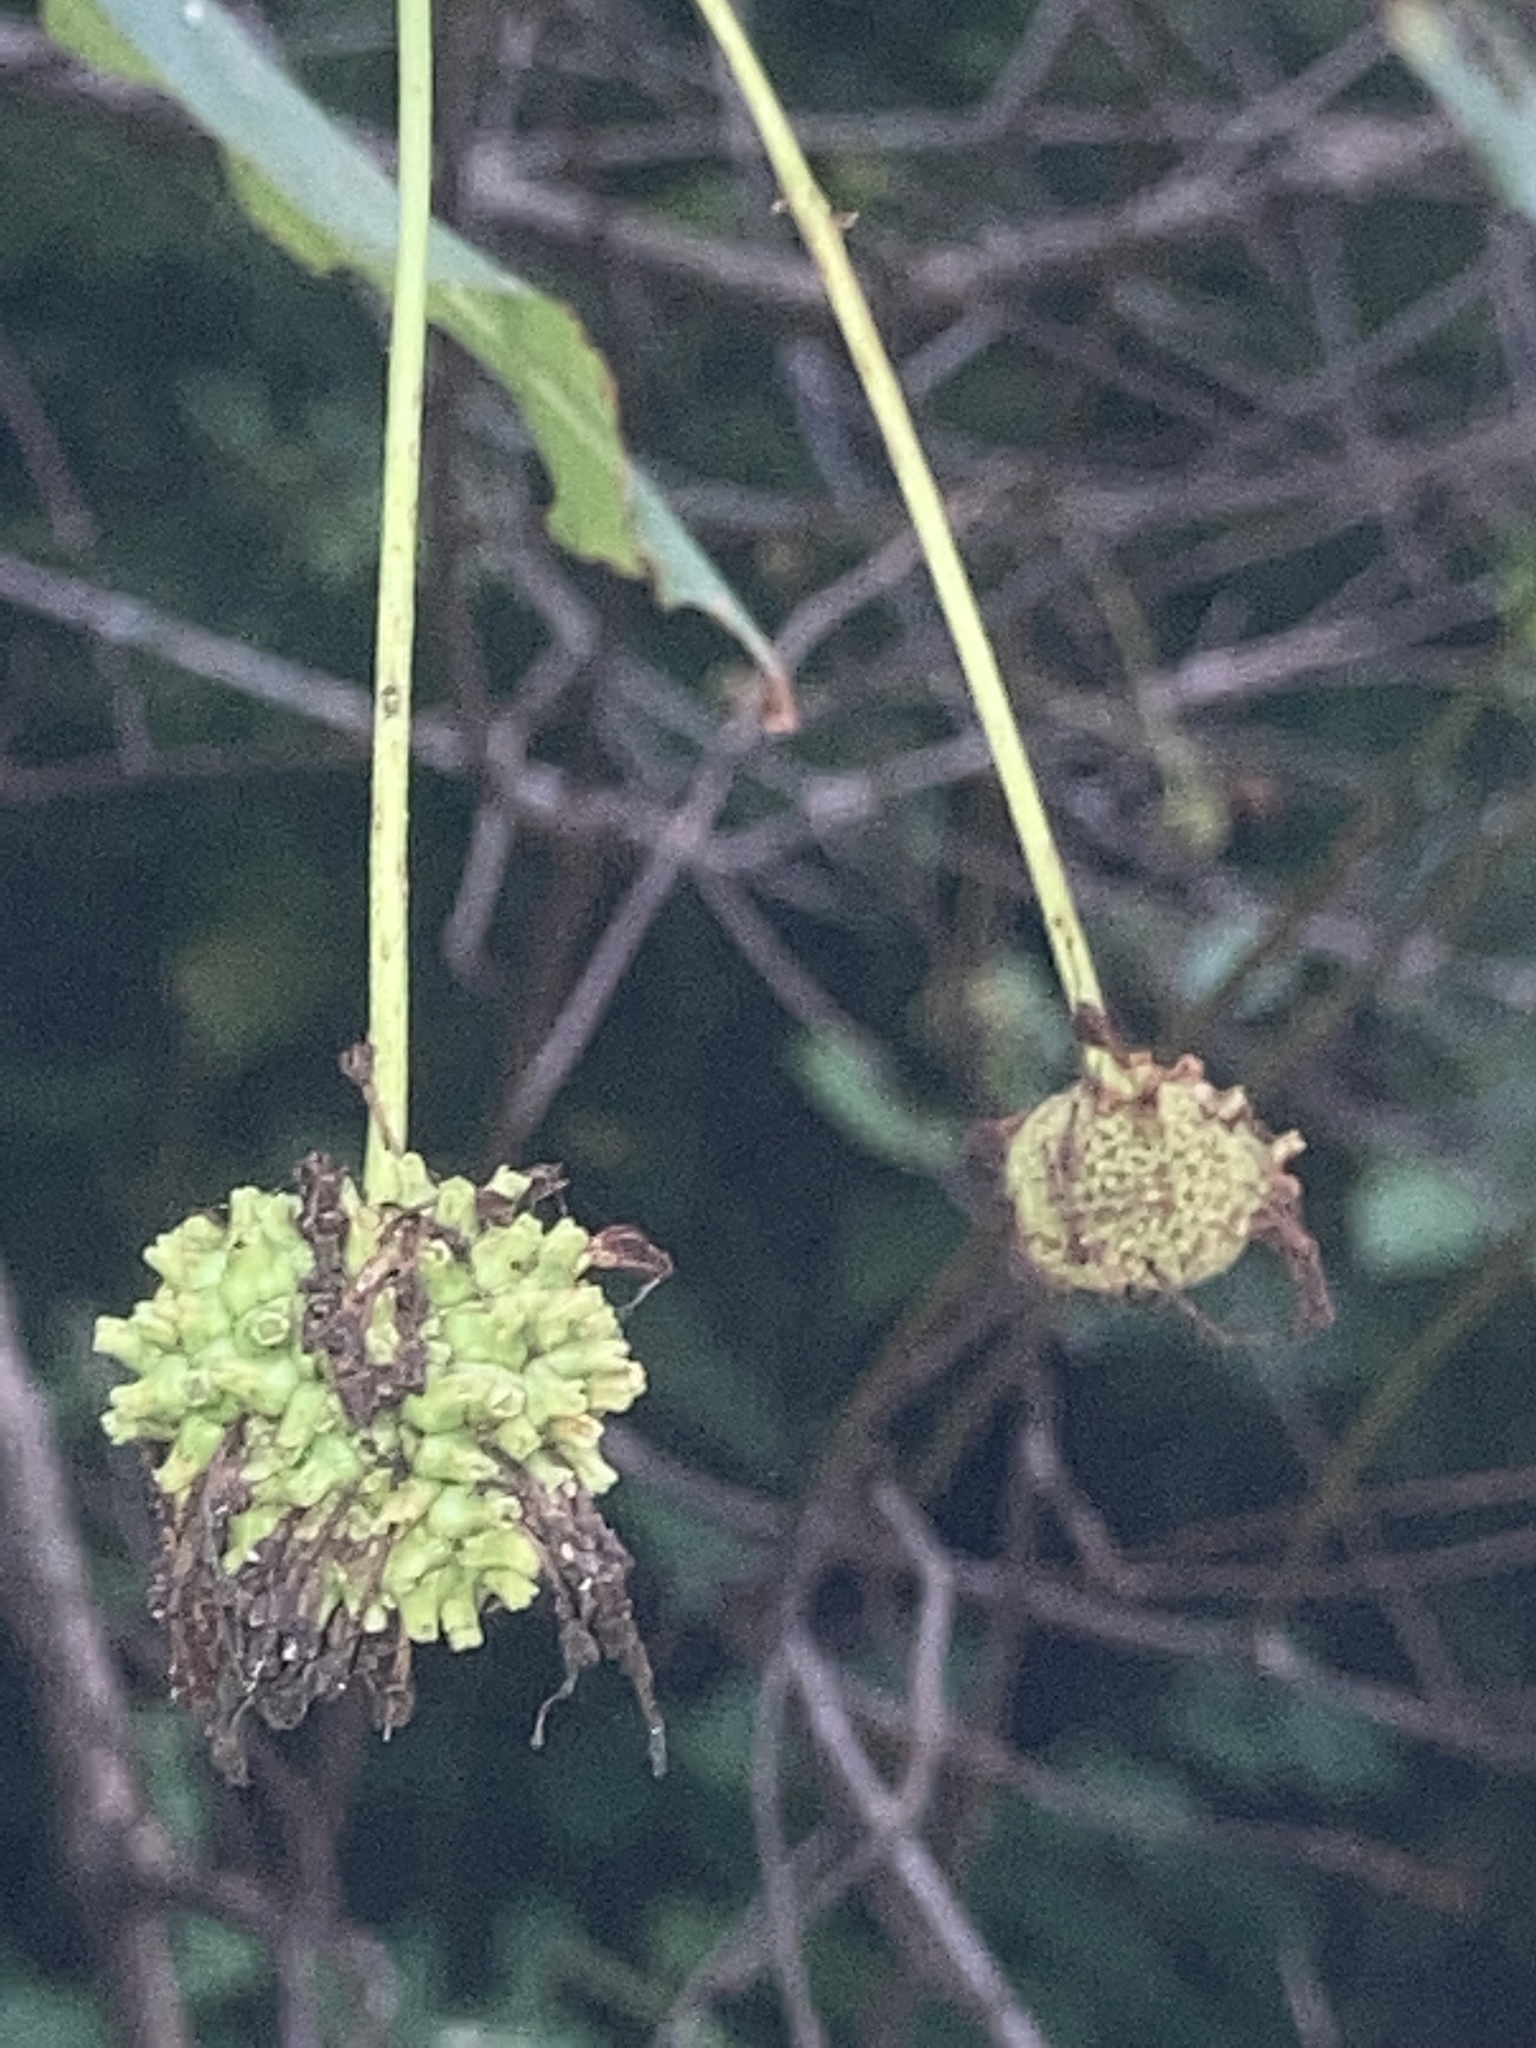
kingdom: Plantae
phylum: Tracheophyta
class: Magnoliopsida
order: Gentianales
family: Rubiaceae
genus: Cephalanthus
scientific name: Cephalanthus occidentalis
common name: Button-willow
